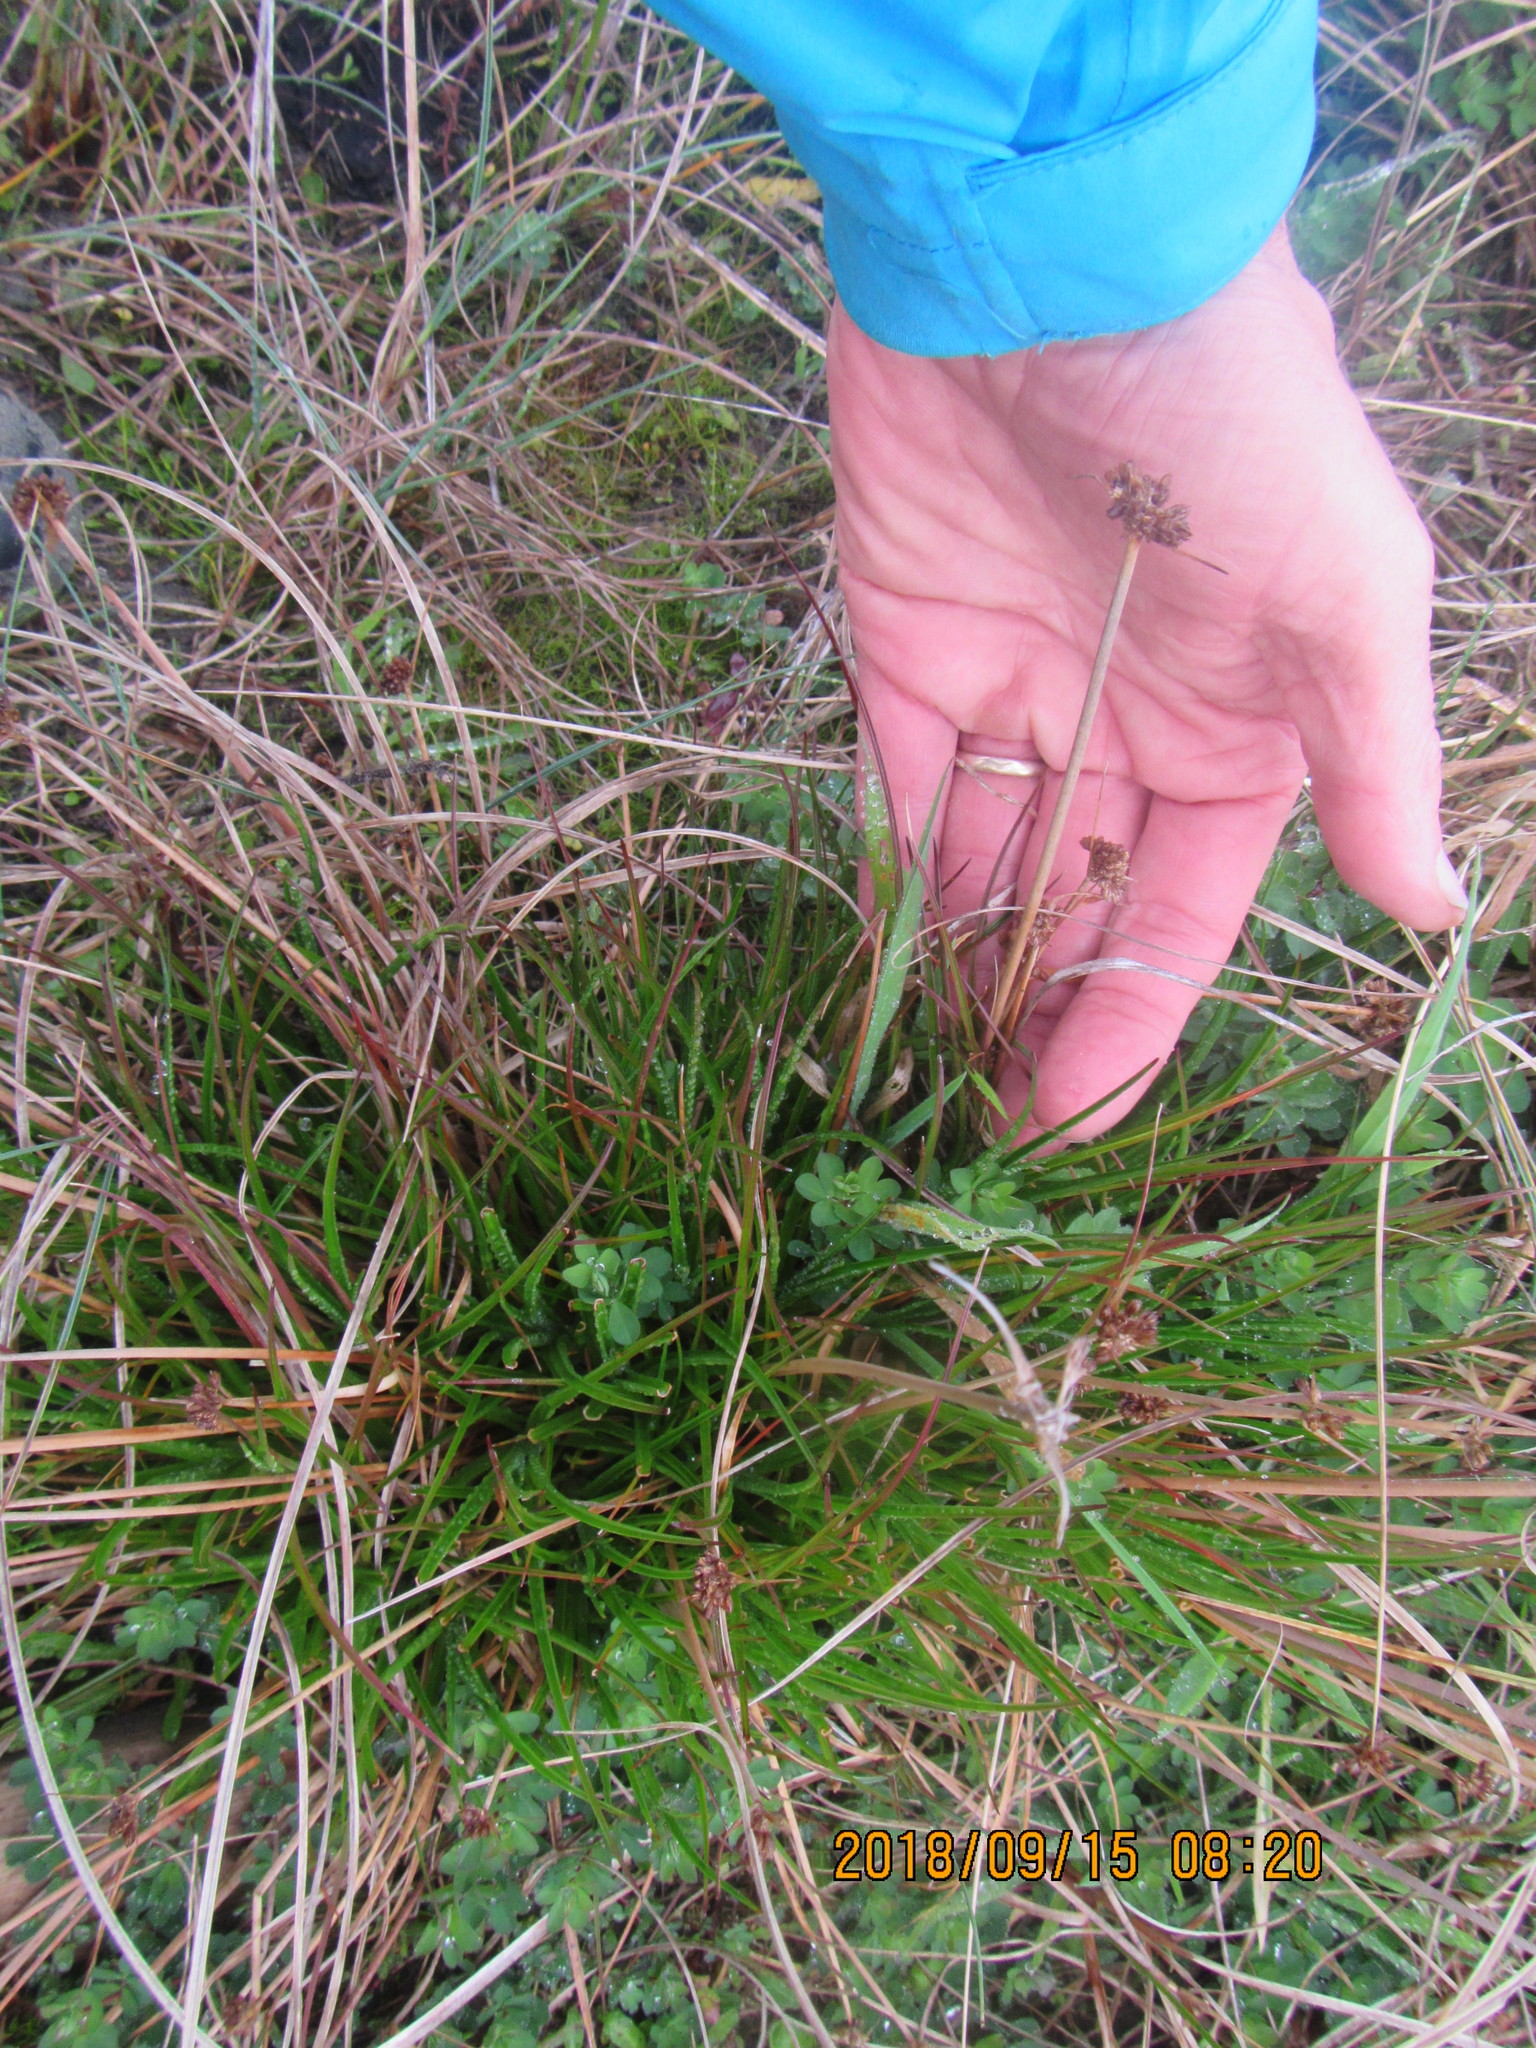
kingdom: Plantae
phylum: Tracheophyta
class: Liliopsida
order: Poales
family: Juncaceae
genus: Juncus
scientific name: Juncus caespiticius
